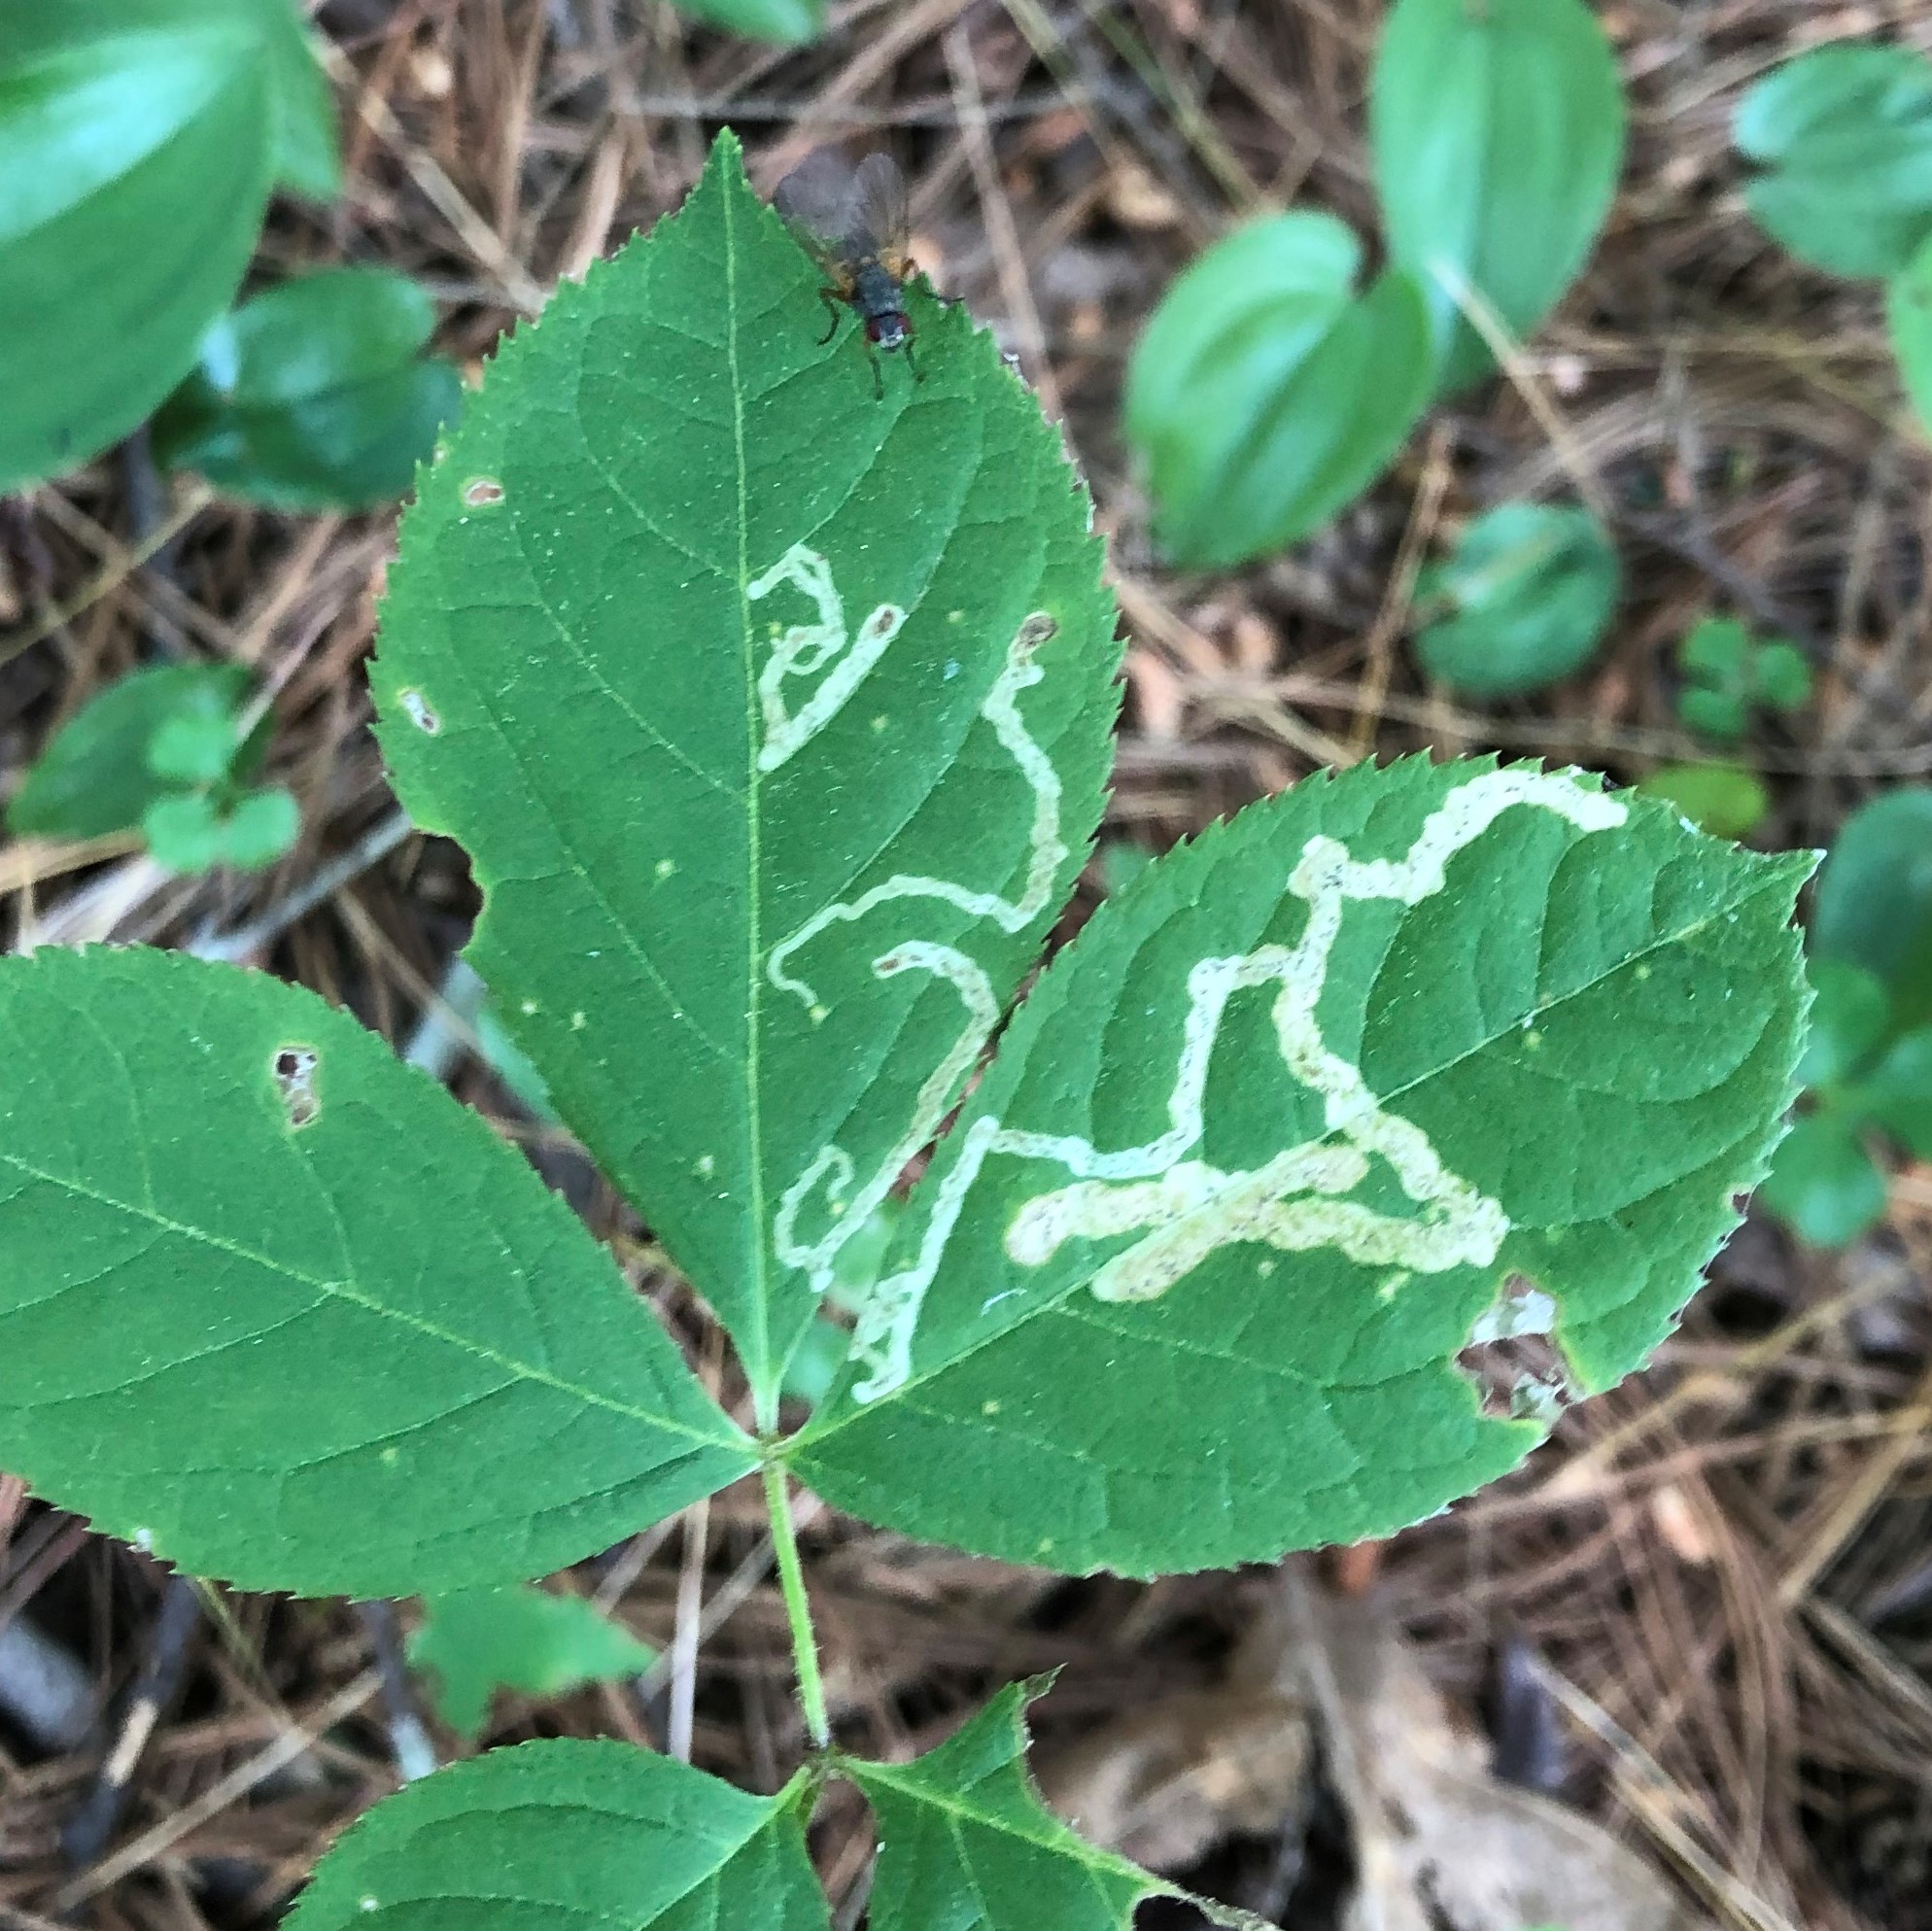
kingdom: Animalia
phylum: Arthropoda
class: Insecta
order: Diptera
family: Agromyzidae
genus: Phytomyza
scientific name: Phytomyza aralivora
